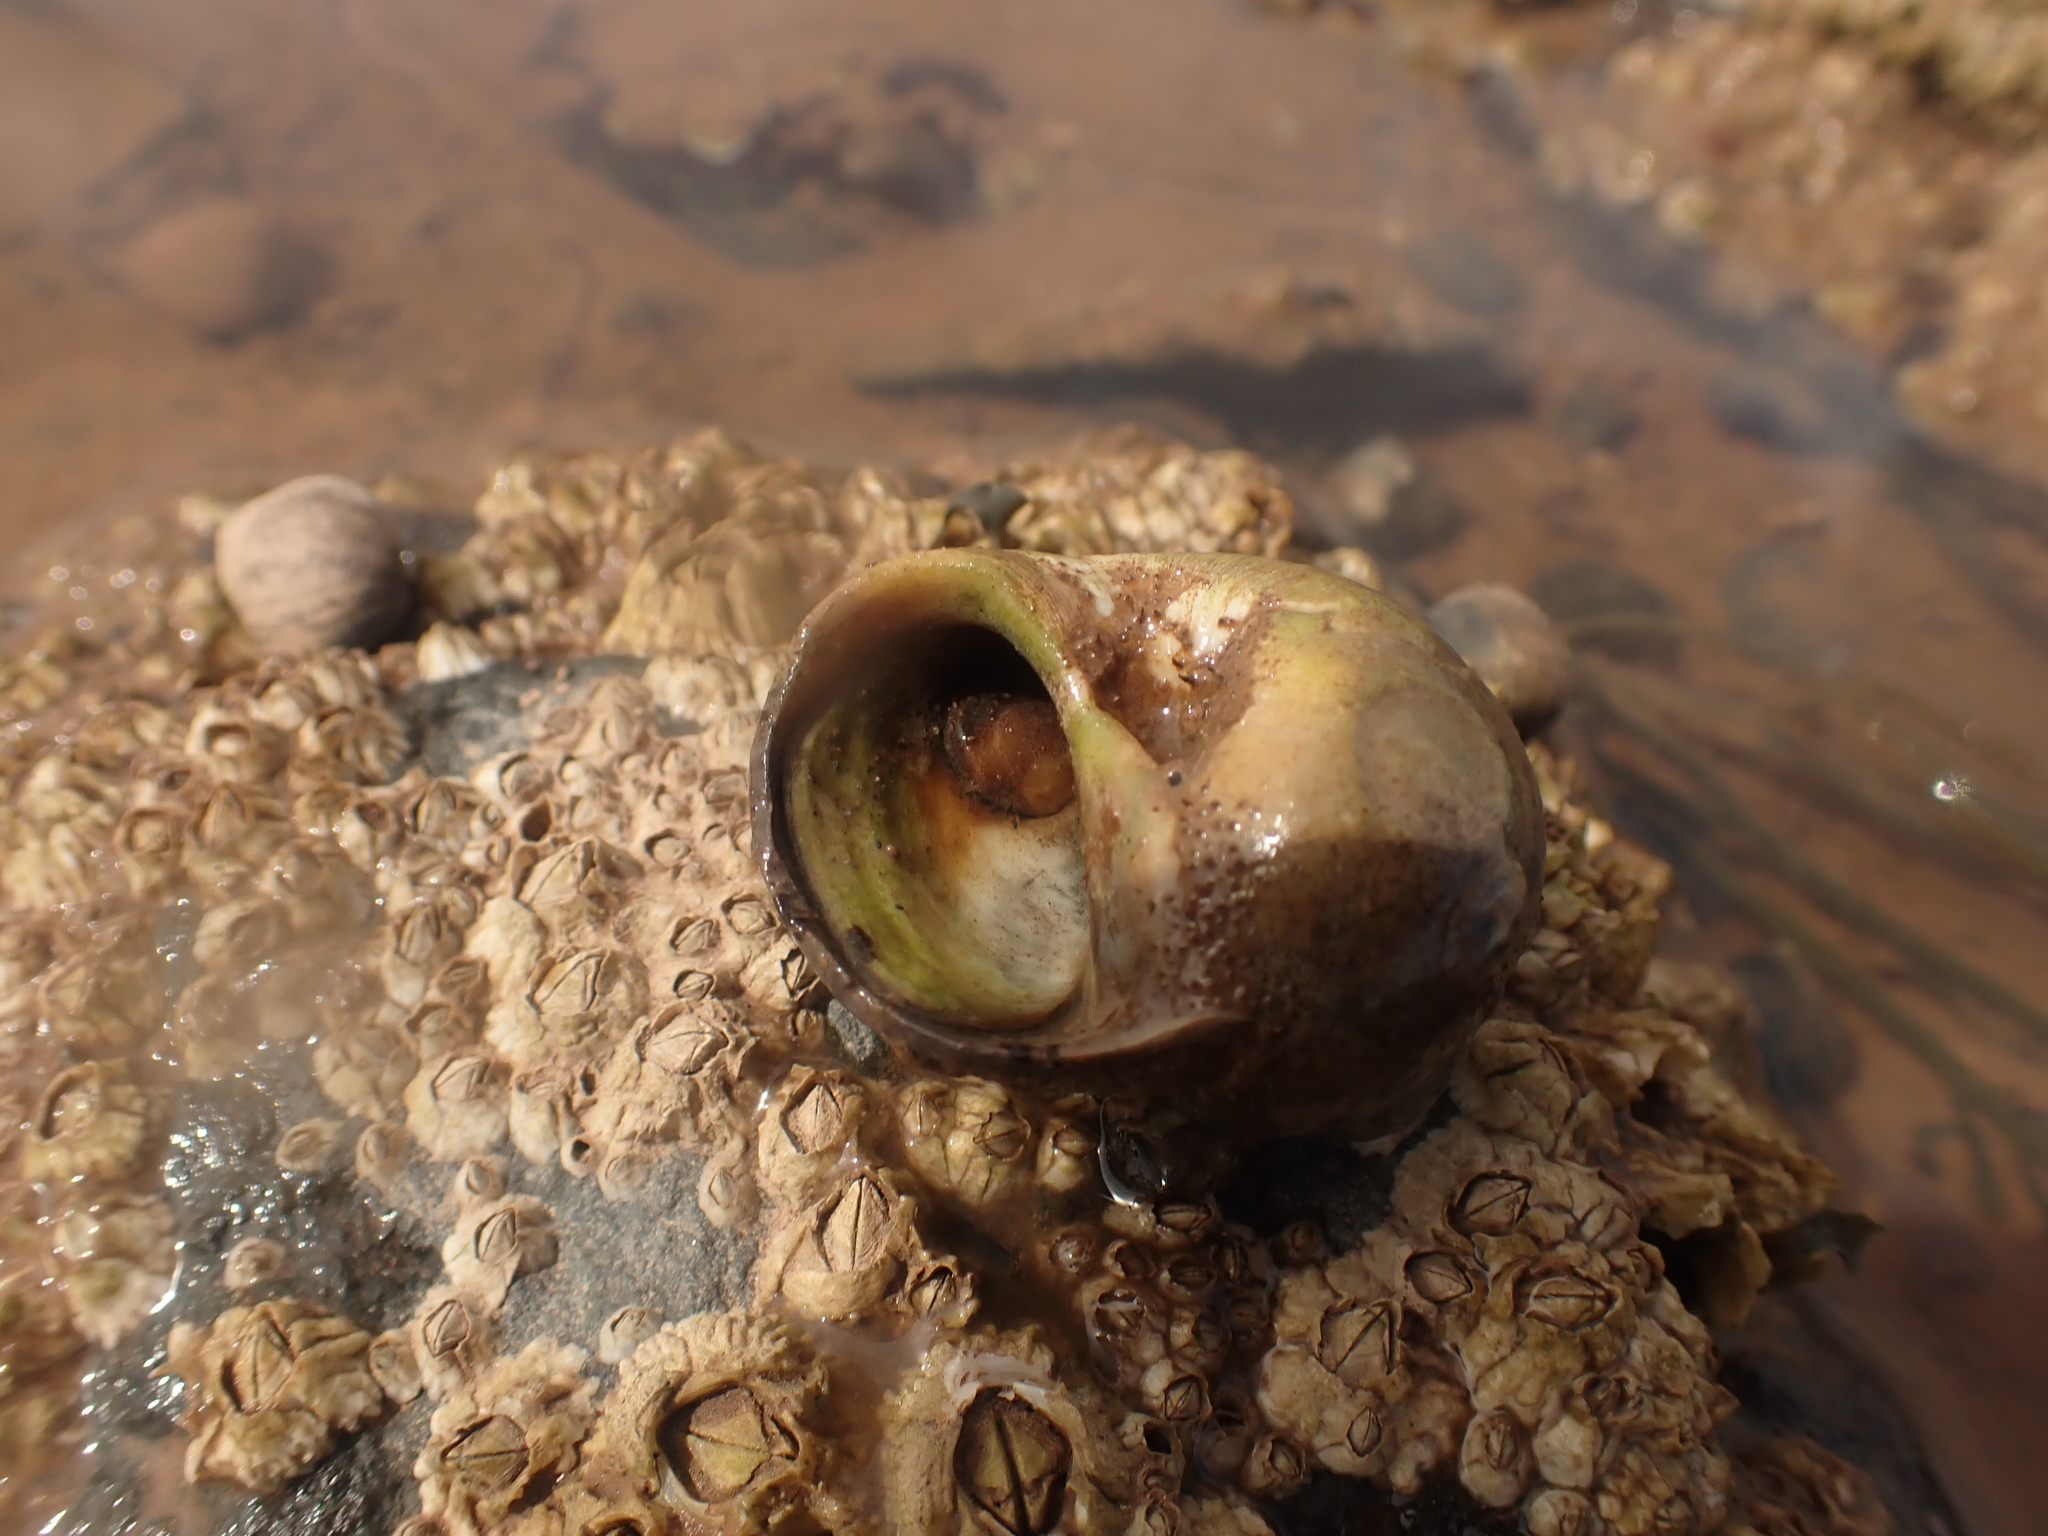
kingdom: Animalia
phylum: Mollusca
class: Gastropoda
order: Littorinimorpha
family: Calyptraeidae
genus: Crepidula
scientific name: Crepidula plana
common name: Eastern white slippersnail
